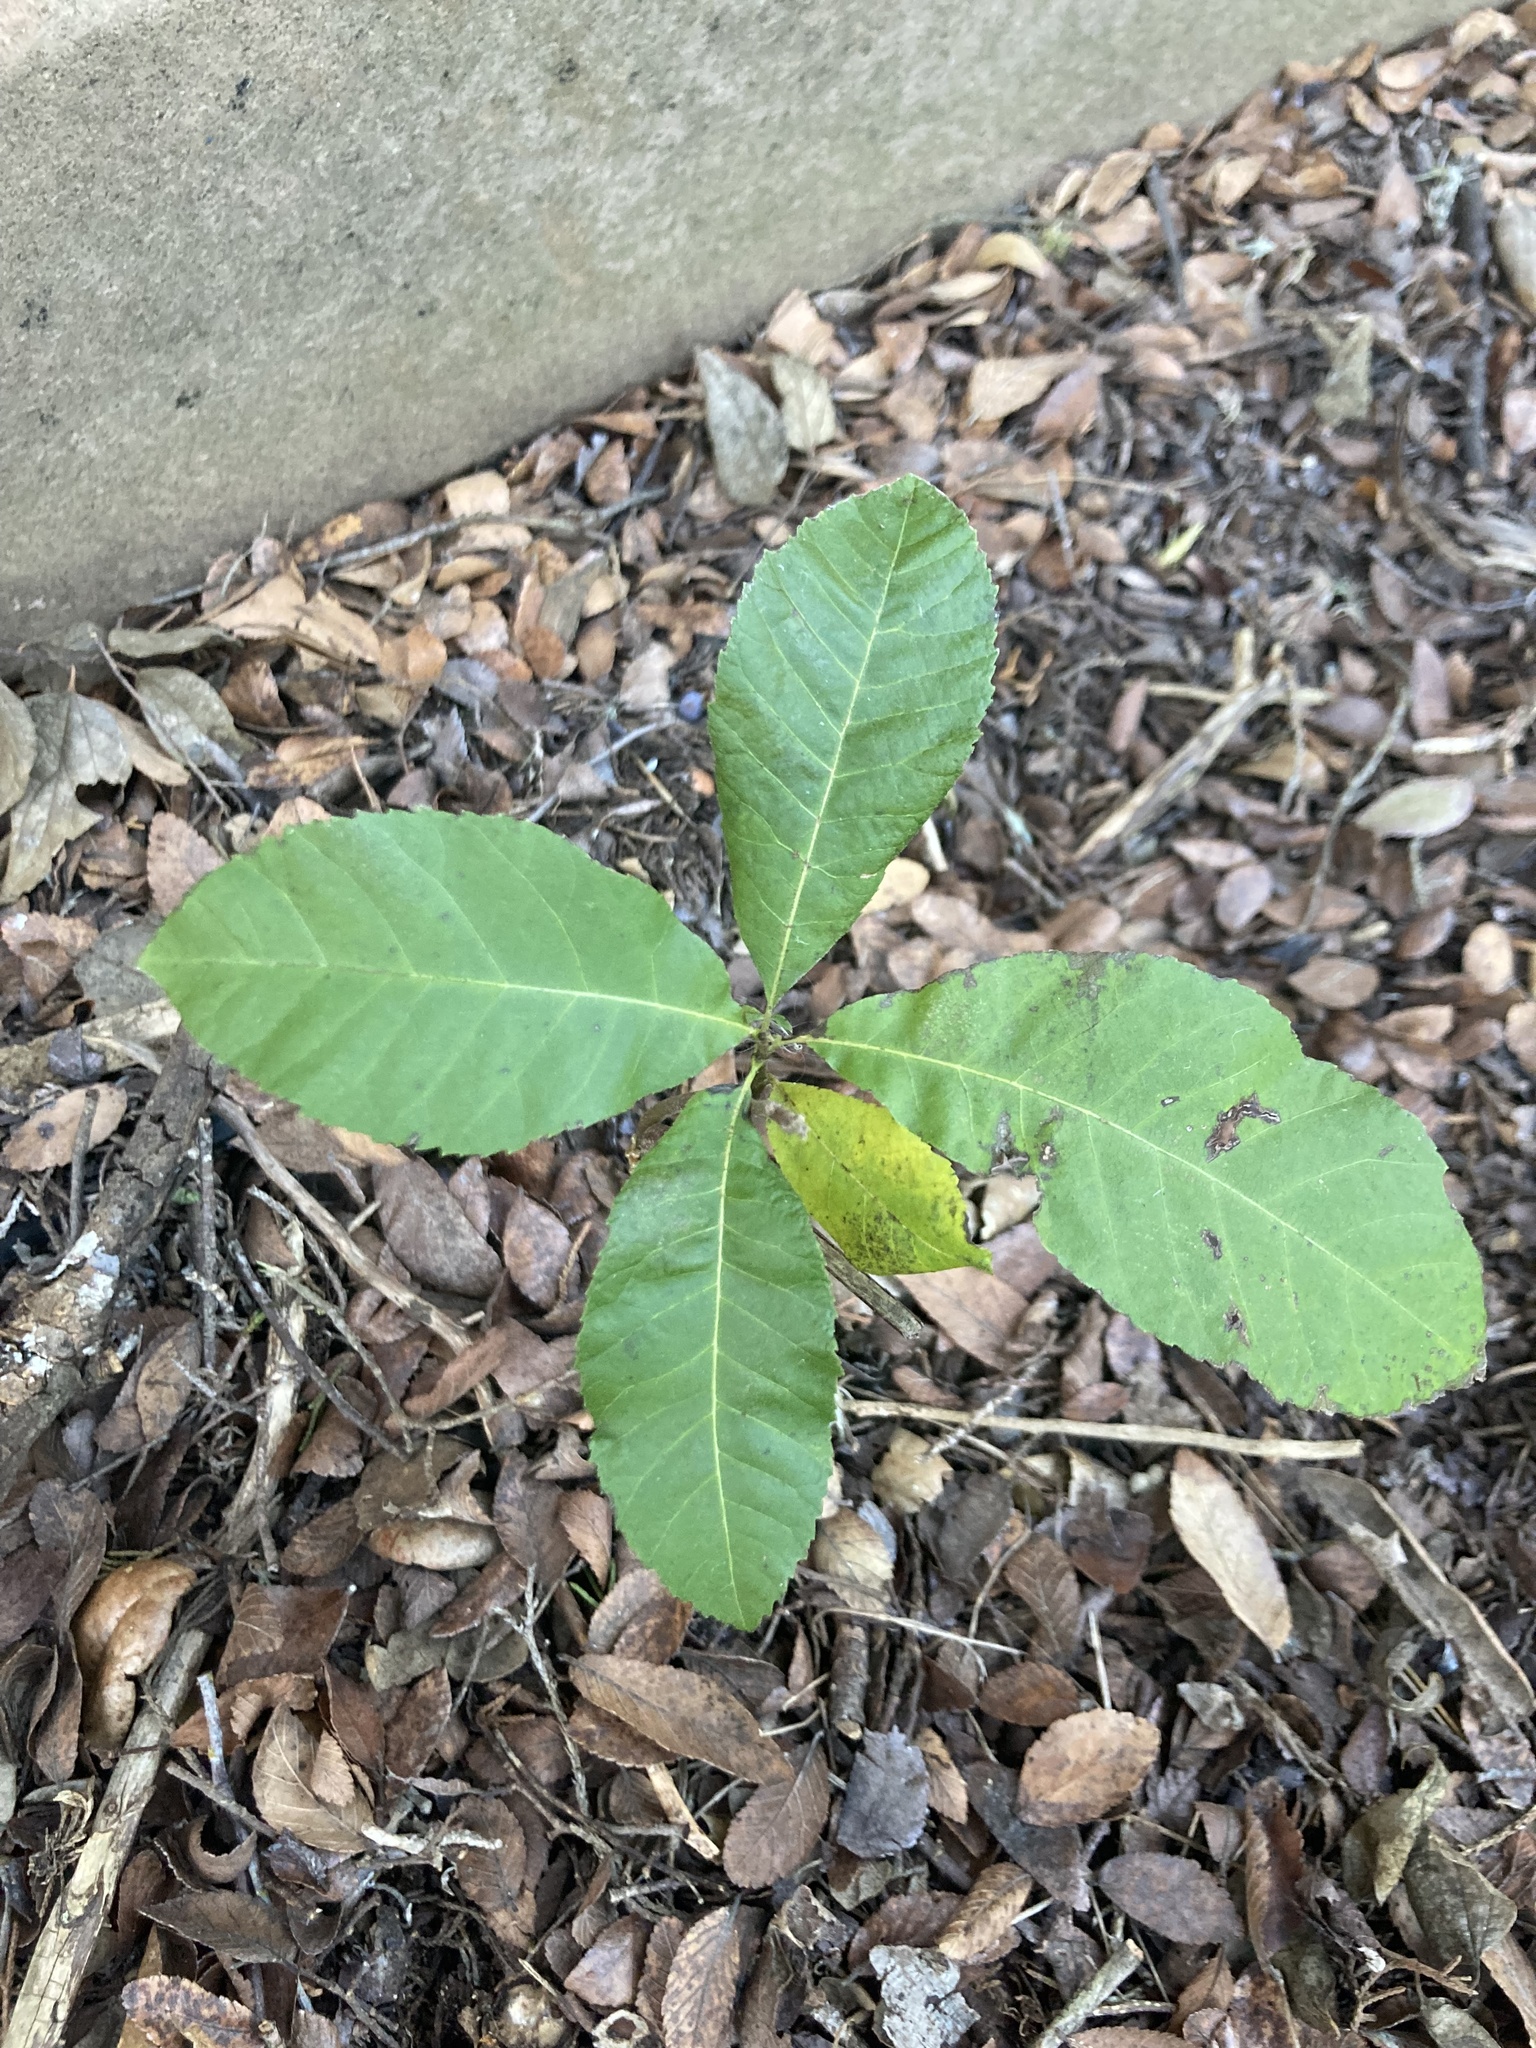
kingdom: Plantae
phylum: Tracheophyta
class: Magnoliopsida
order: Fagales
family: Juglandaceae
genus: Carya
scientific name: Carya illinoinensis
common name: Pecan
